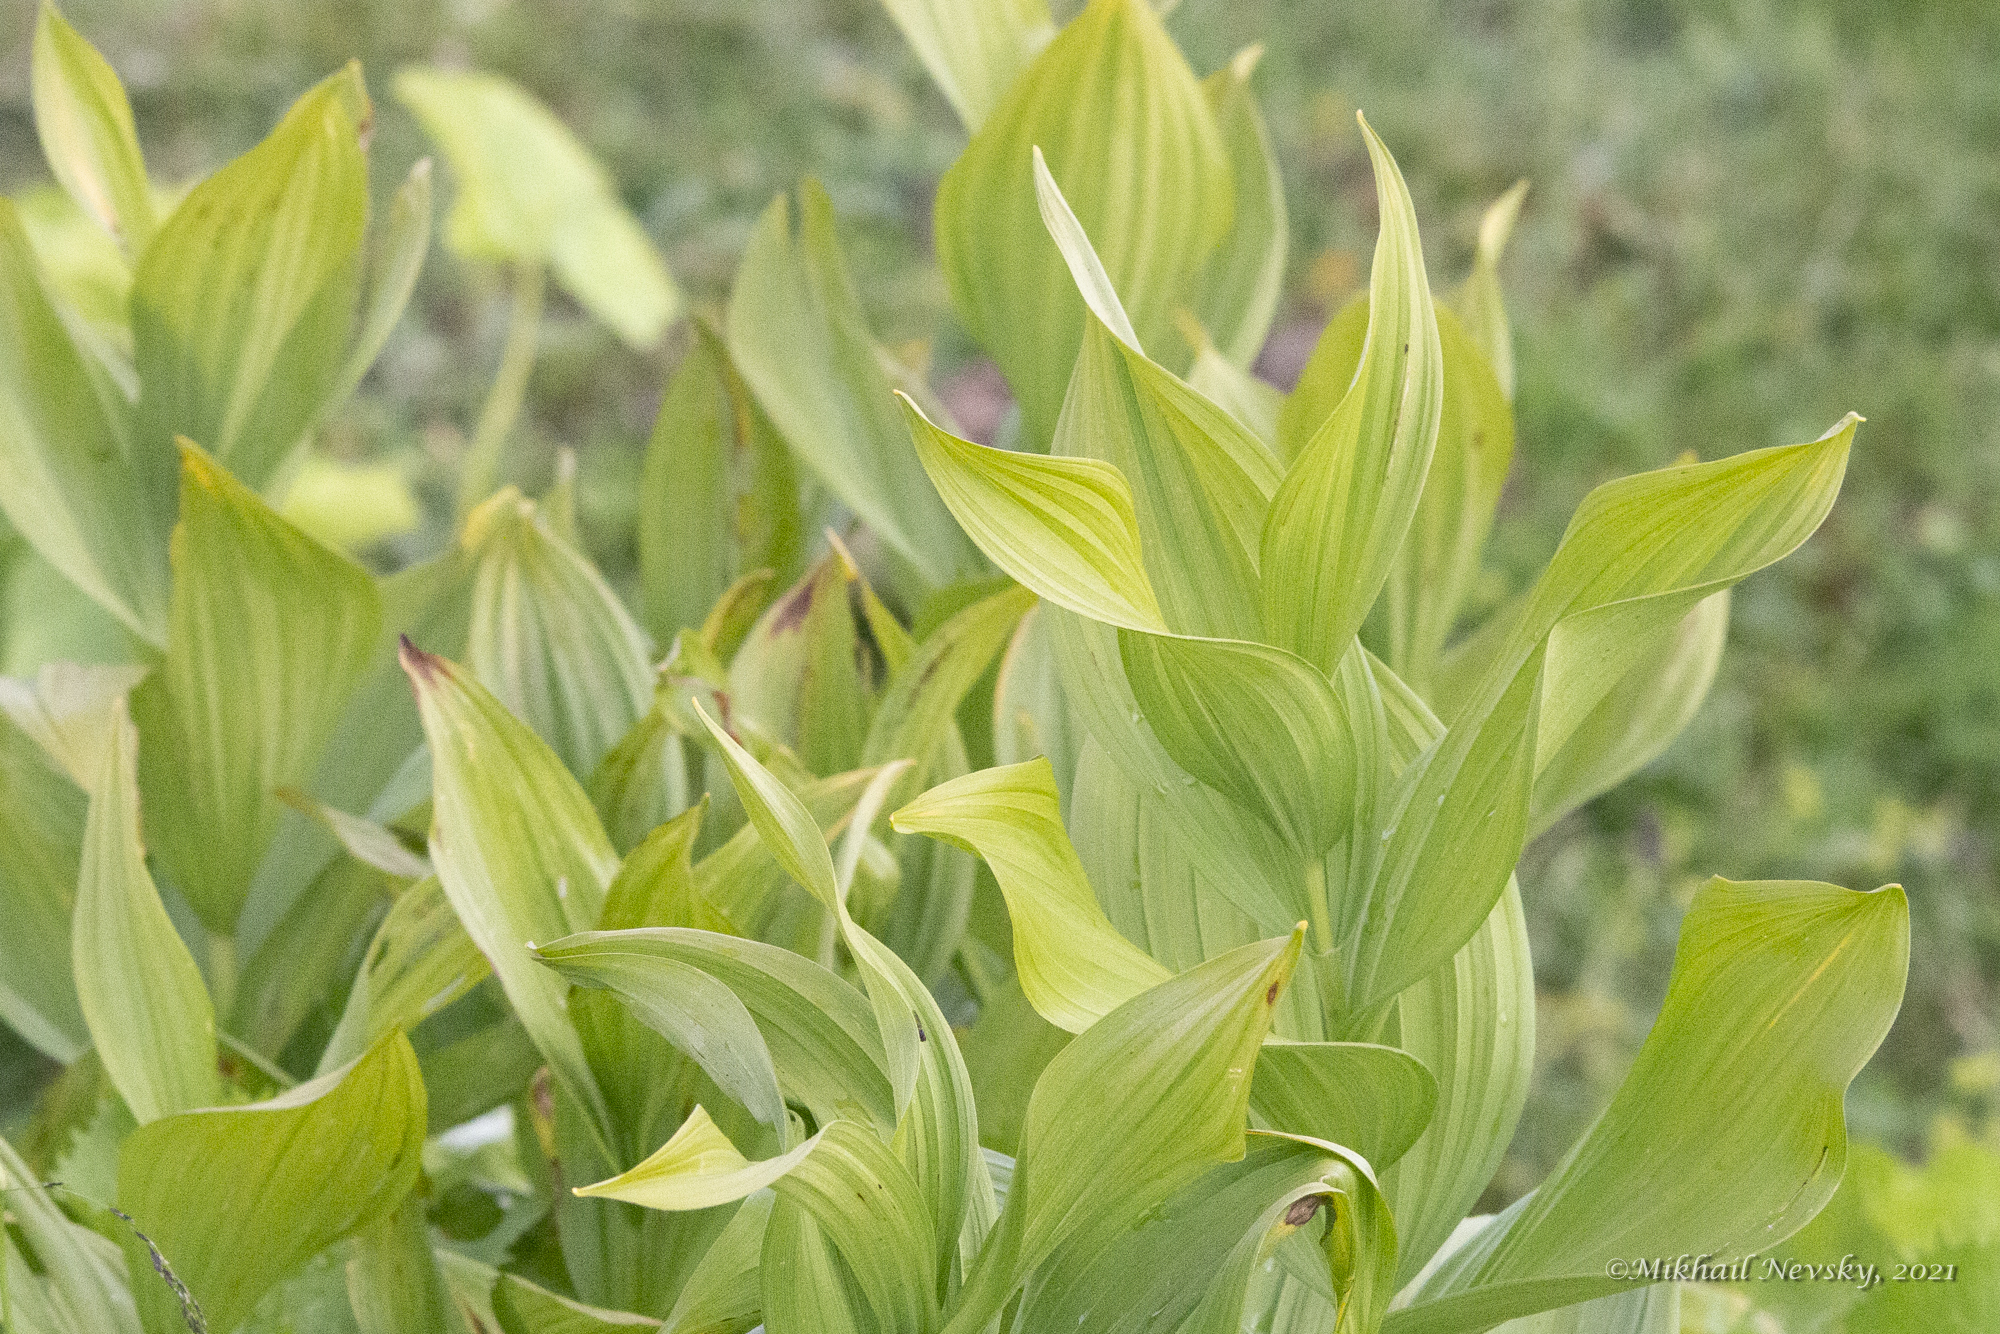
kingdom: Plantae
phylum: Tracheophyta
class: Liliopsida
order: Liliales
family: Melanthiaceae
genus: Veratrum
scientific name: Veratrum lobelianum
